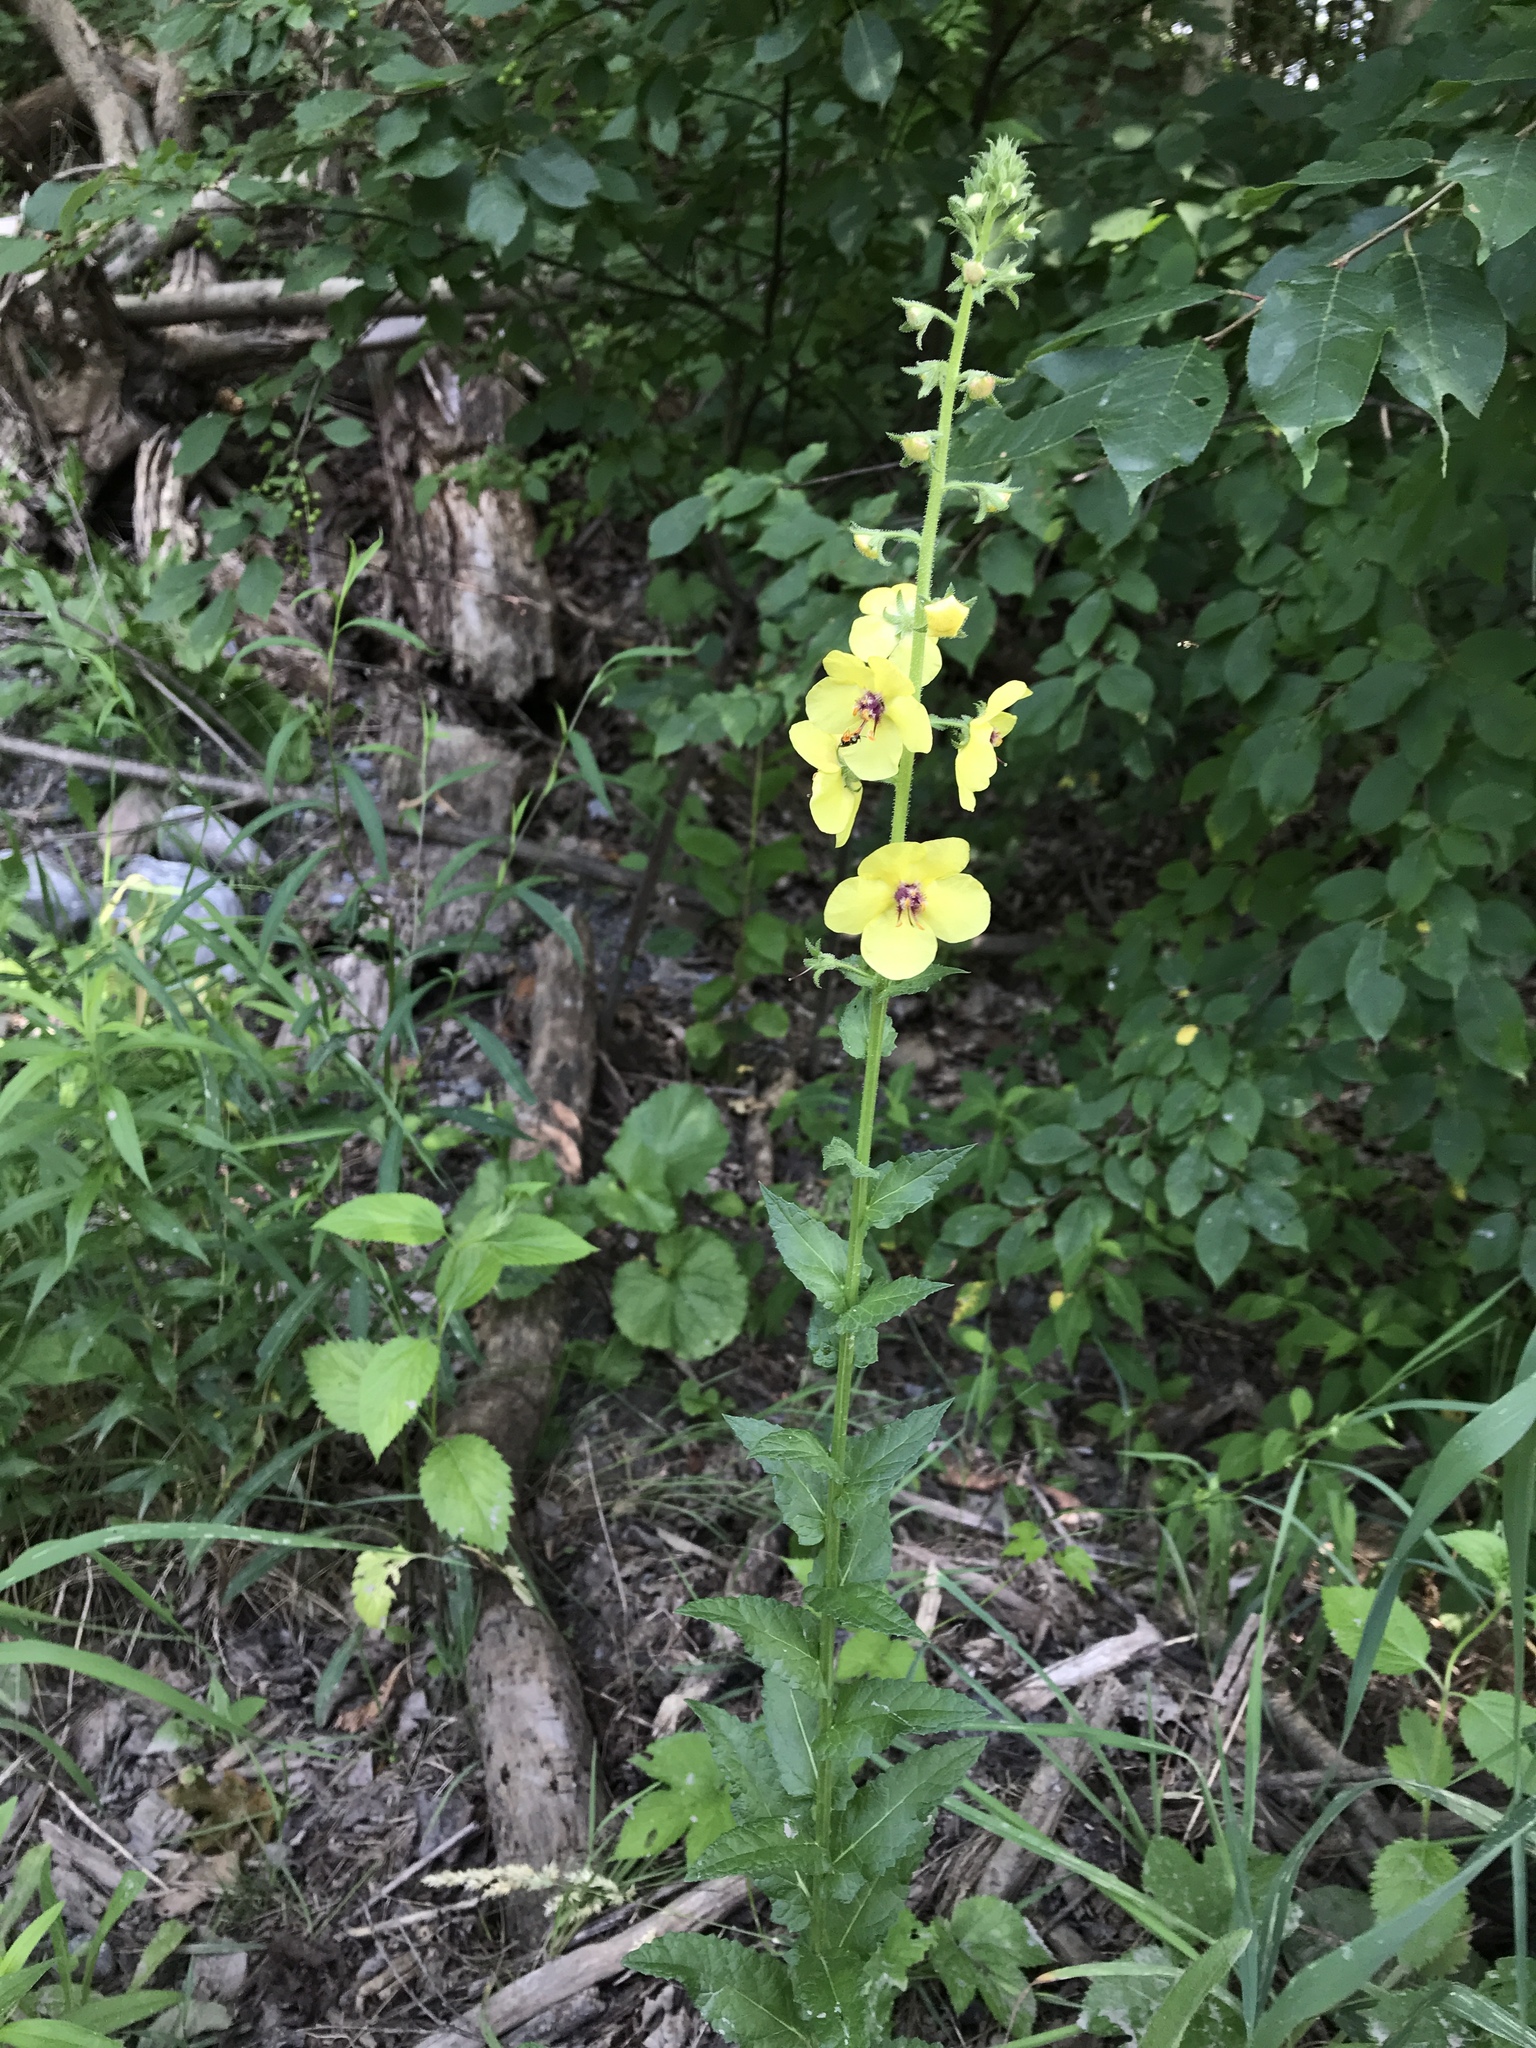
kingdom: Plantae
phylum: Tracheophyta
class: Magnoliopsida
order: Lamiales
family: Scrophulariaceae
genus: Verbascum
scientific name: Verbascum blattaria
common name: Moth mullein
